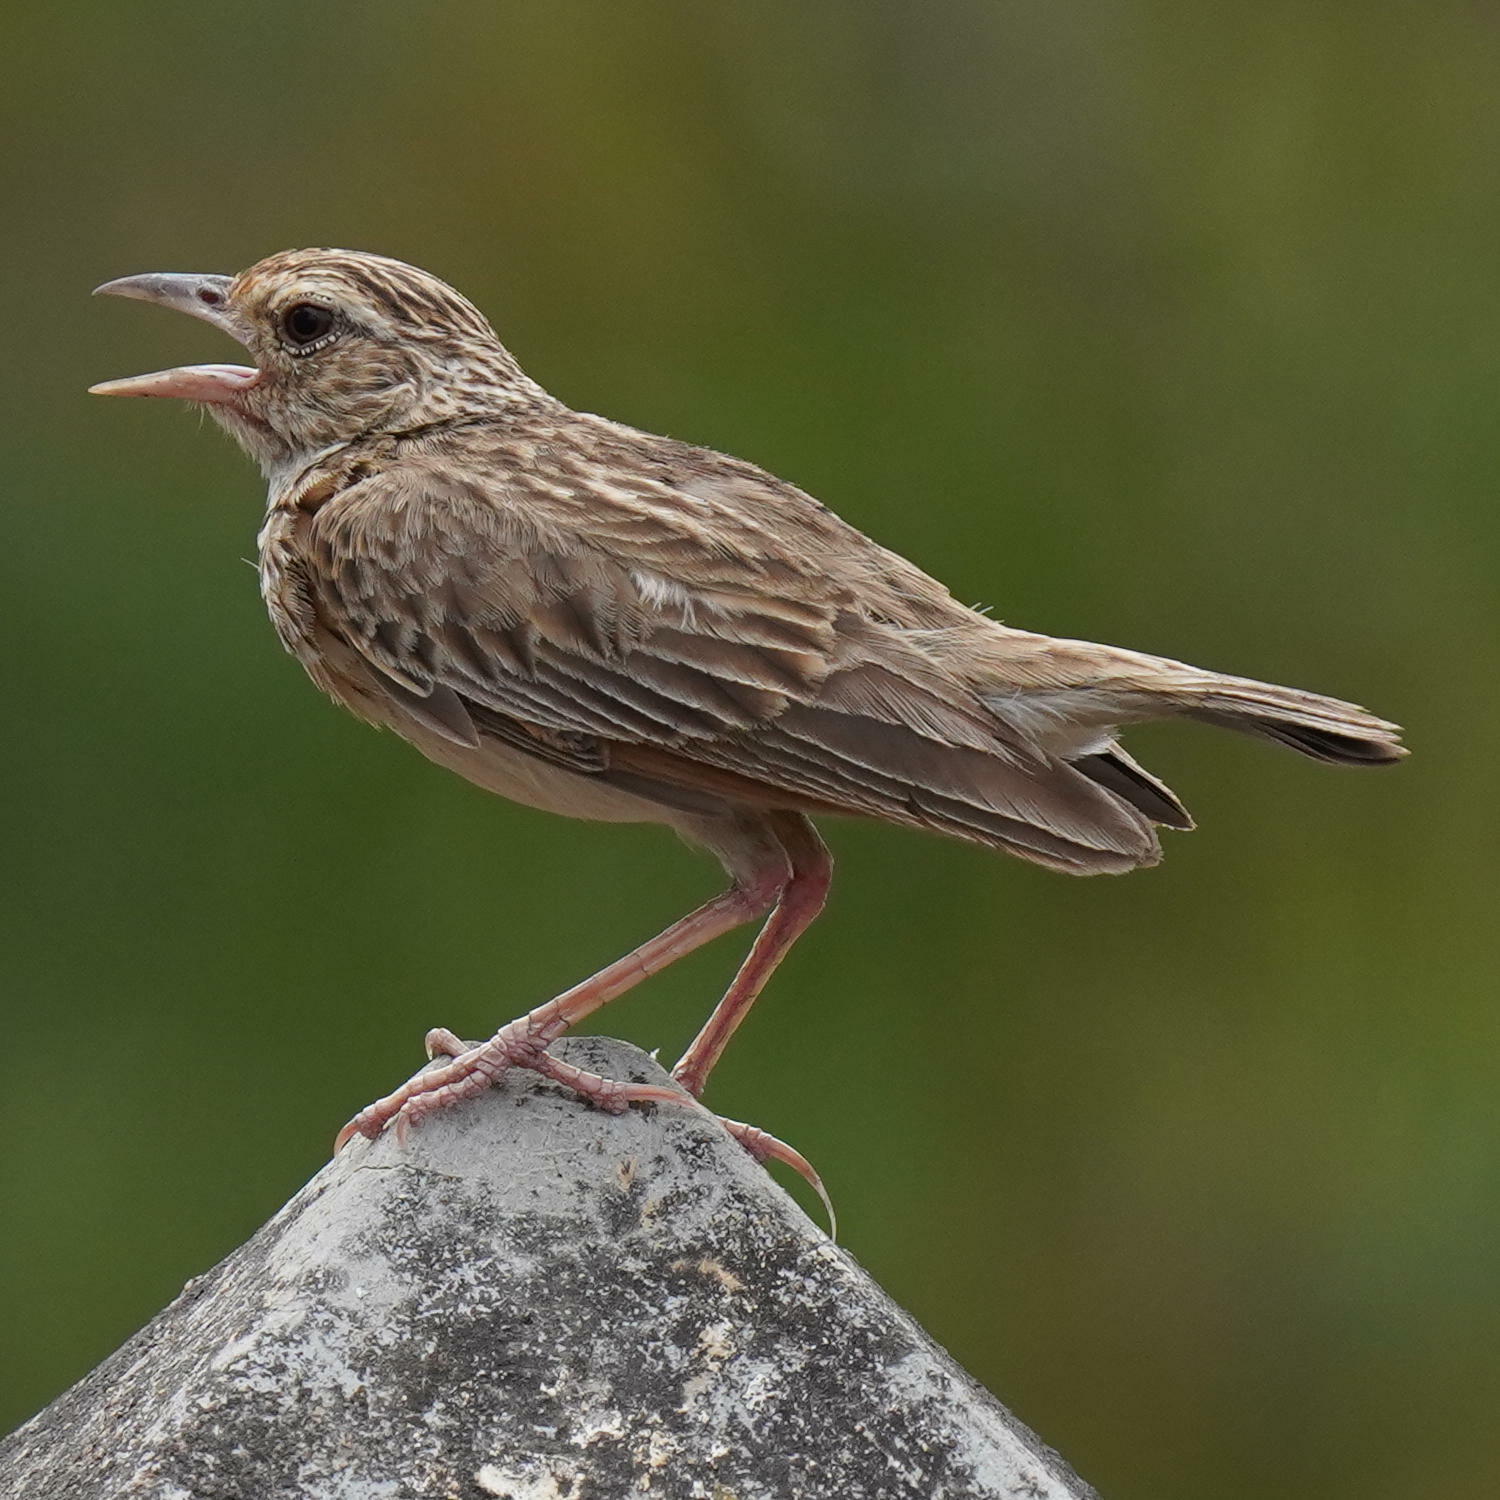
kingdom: Animalia
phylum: Chordata
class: Aves
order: Passeriformes
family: Alaudidae
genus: Mirafra
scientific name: Mirafra affinis
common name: Jerdon's bushlark
